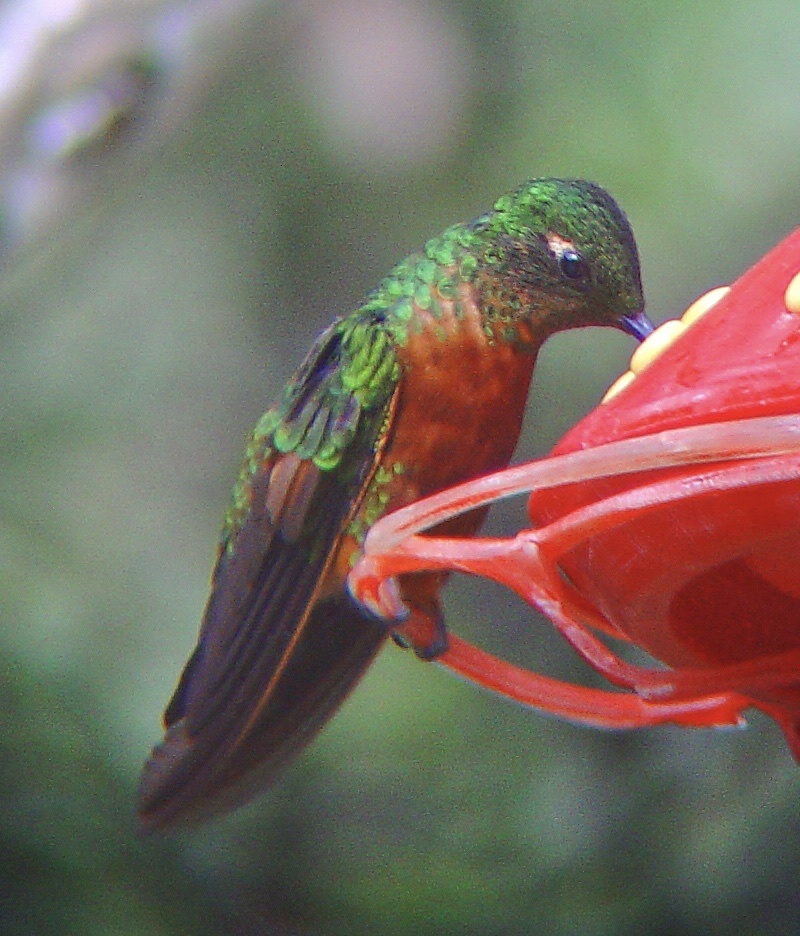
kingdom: Animalia
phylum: Chordata
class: Aves
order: Apodiformes
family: Trochilidae
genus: Boissonneaua
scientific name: Boissonneaua matthewsii
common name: Chestnut-breasted coronet
